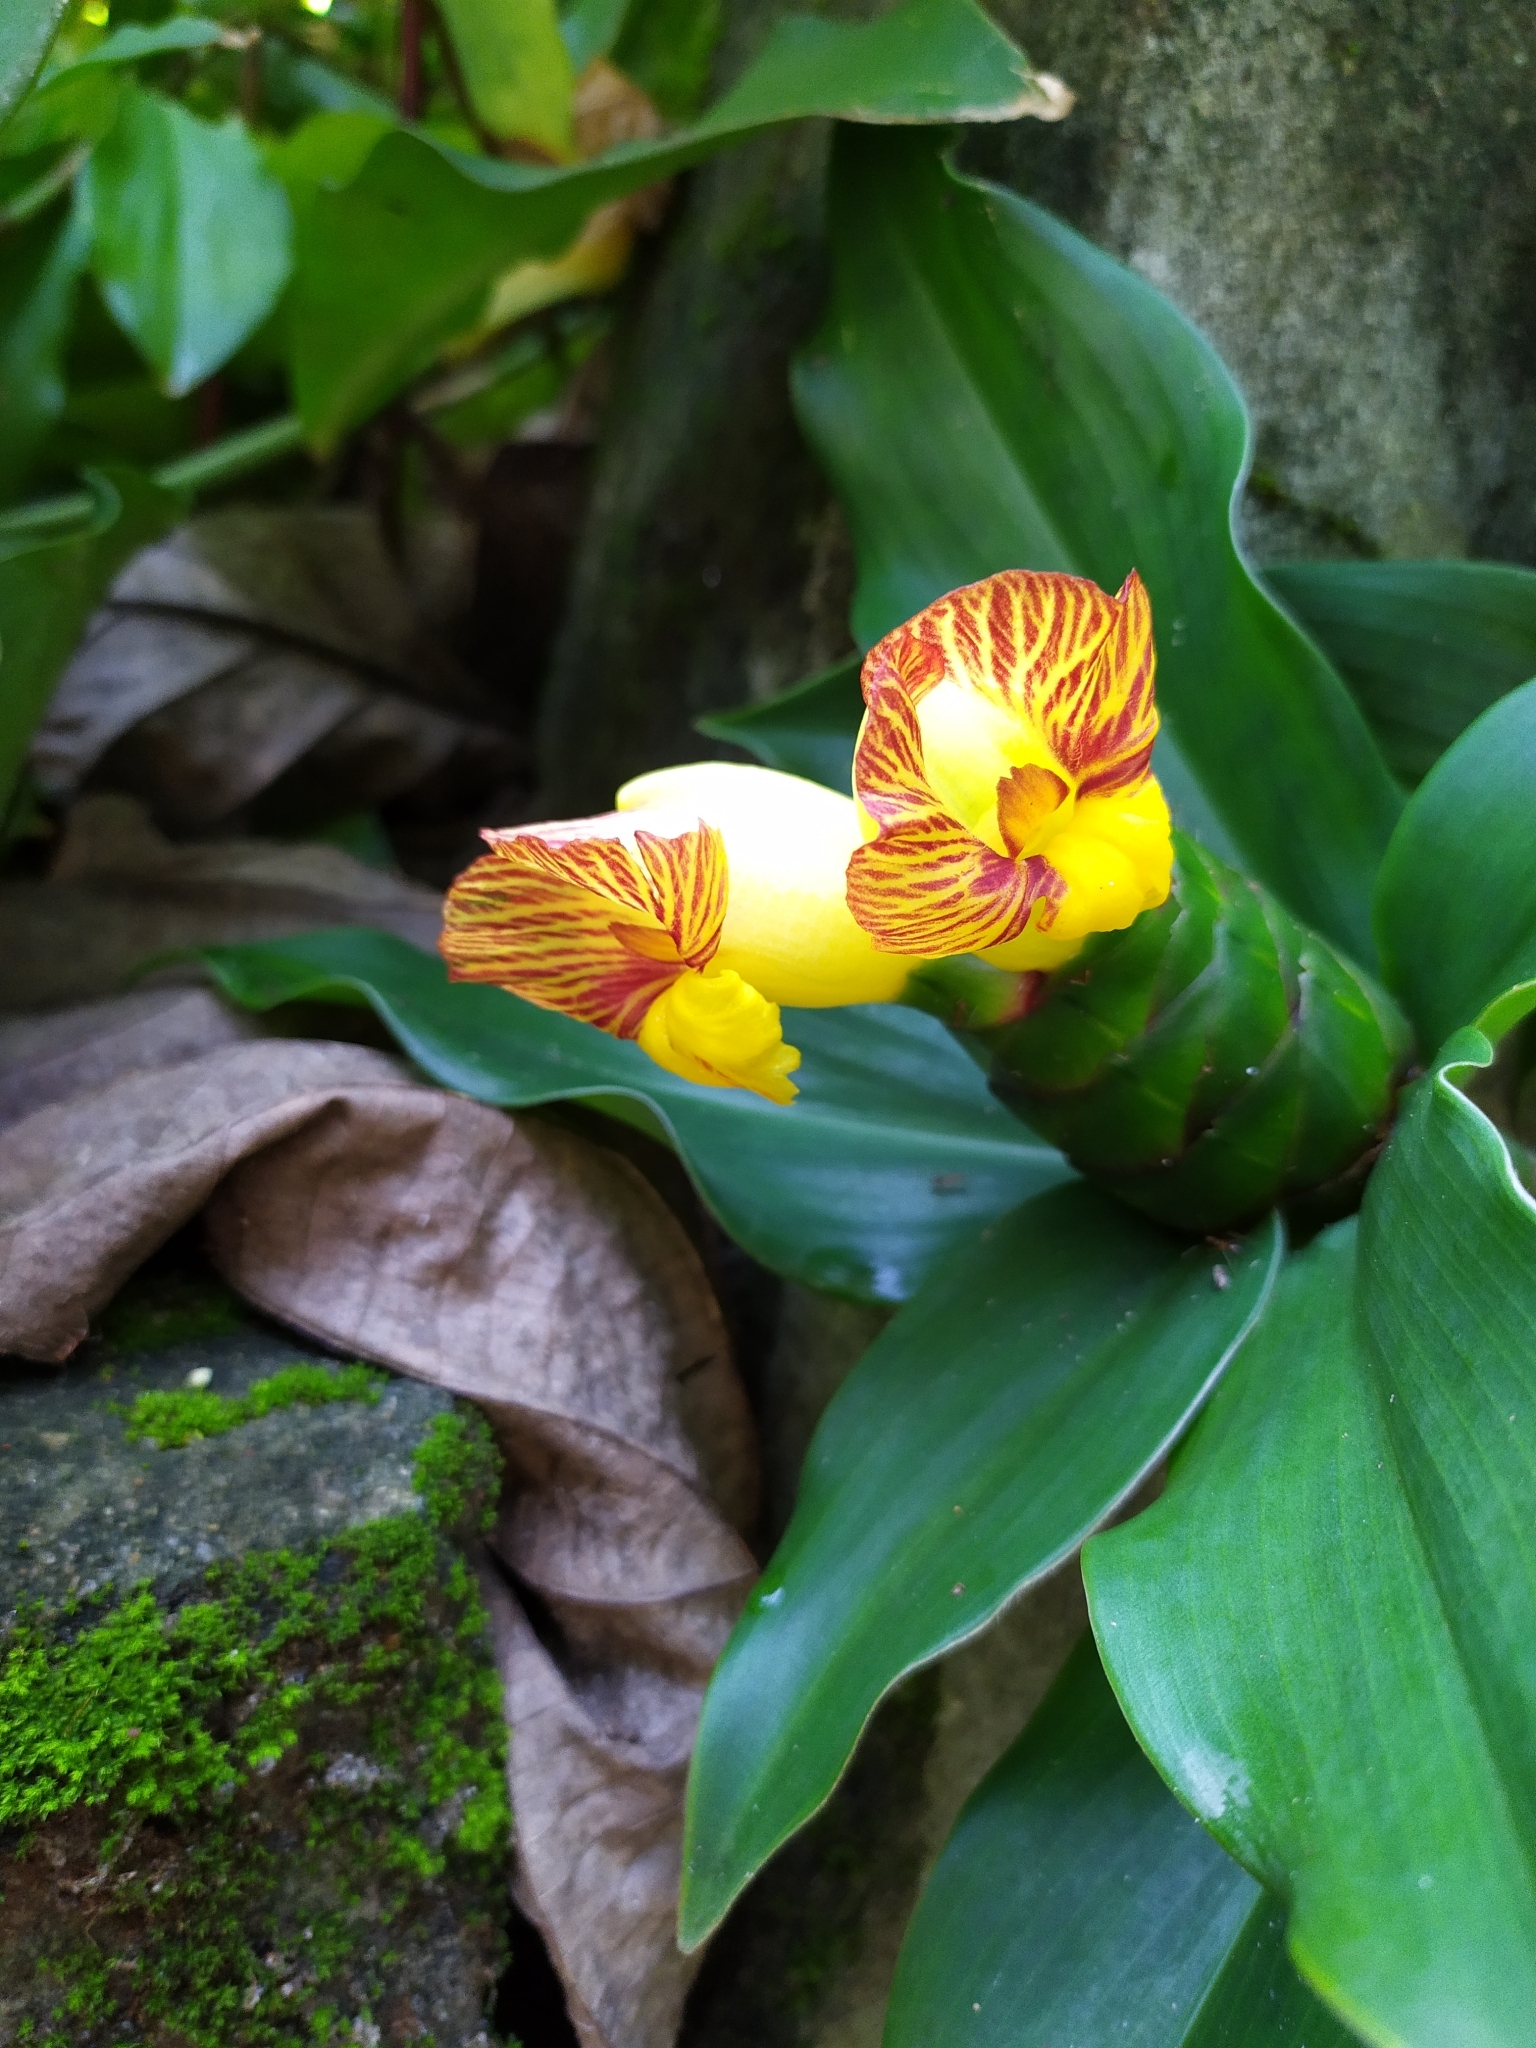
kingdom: Plantae
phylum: Tracheophyta
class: Liliopsida
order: Zingiberales
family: Costaceae
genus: Costus
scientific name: Costus pictus
